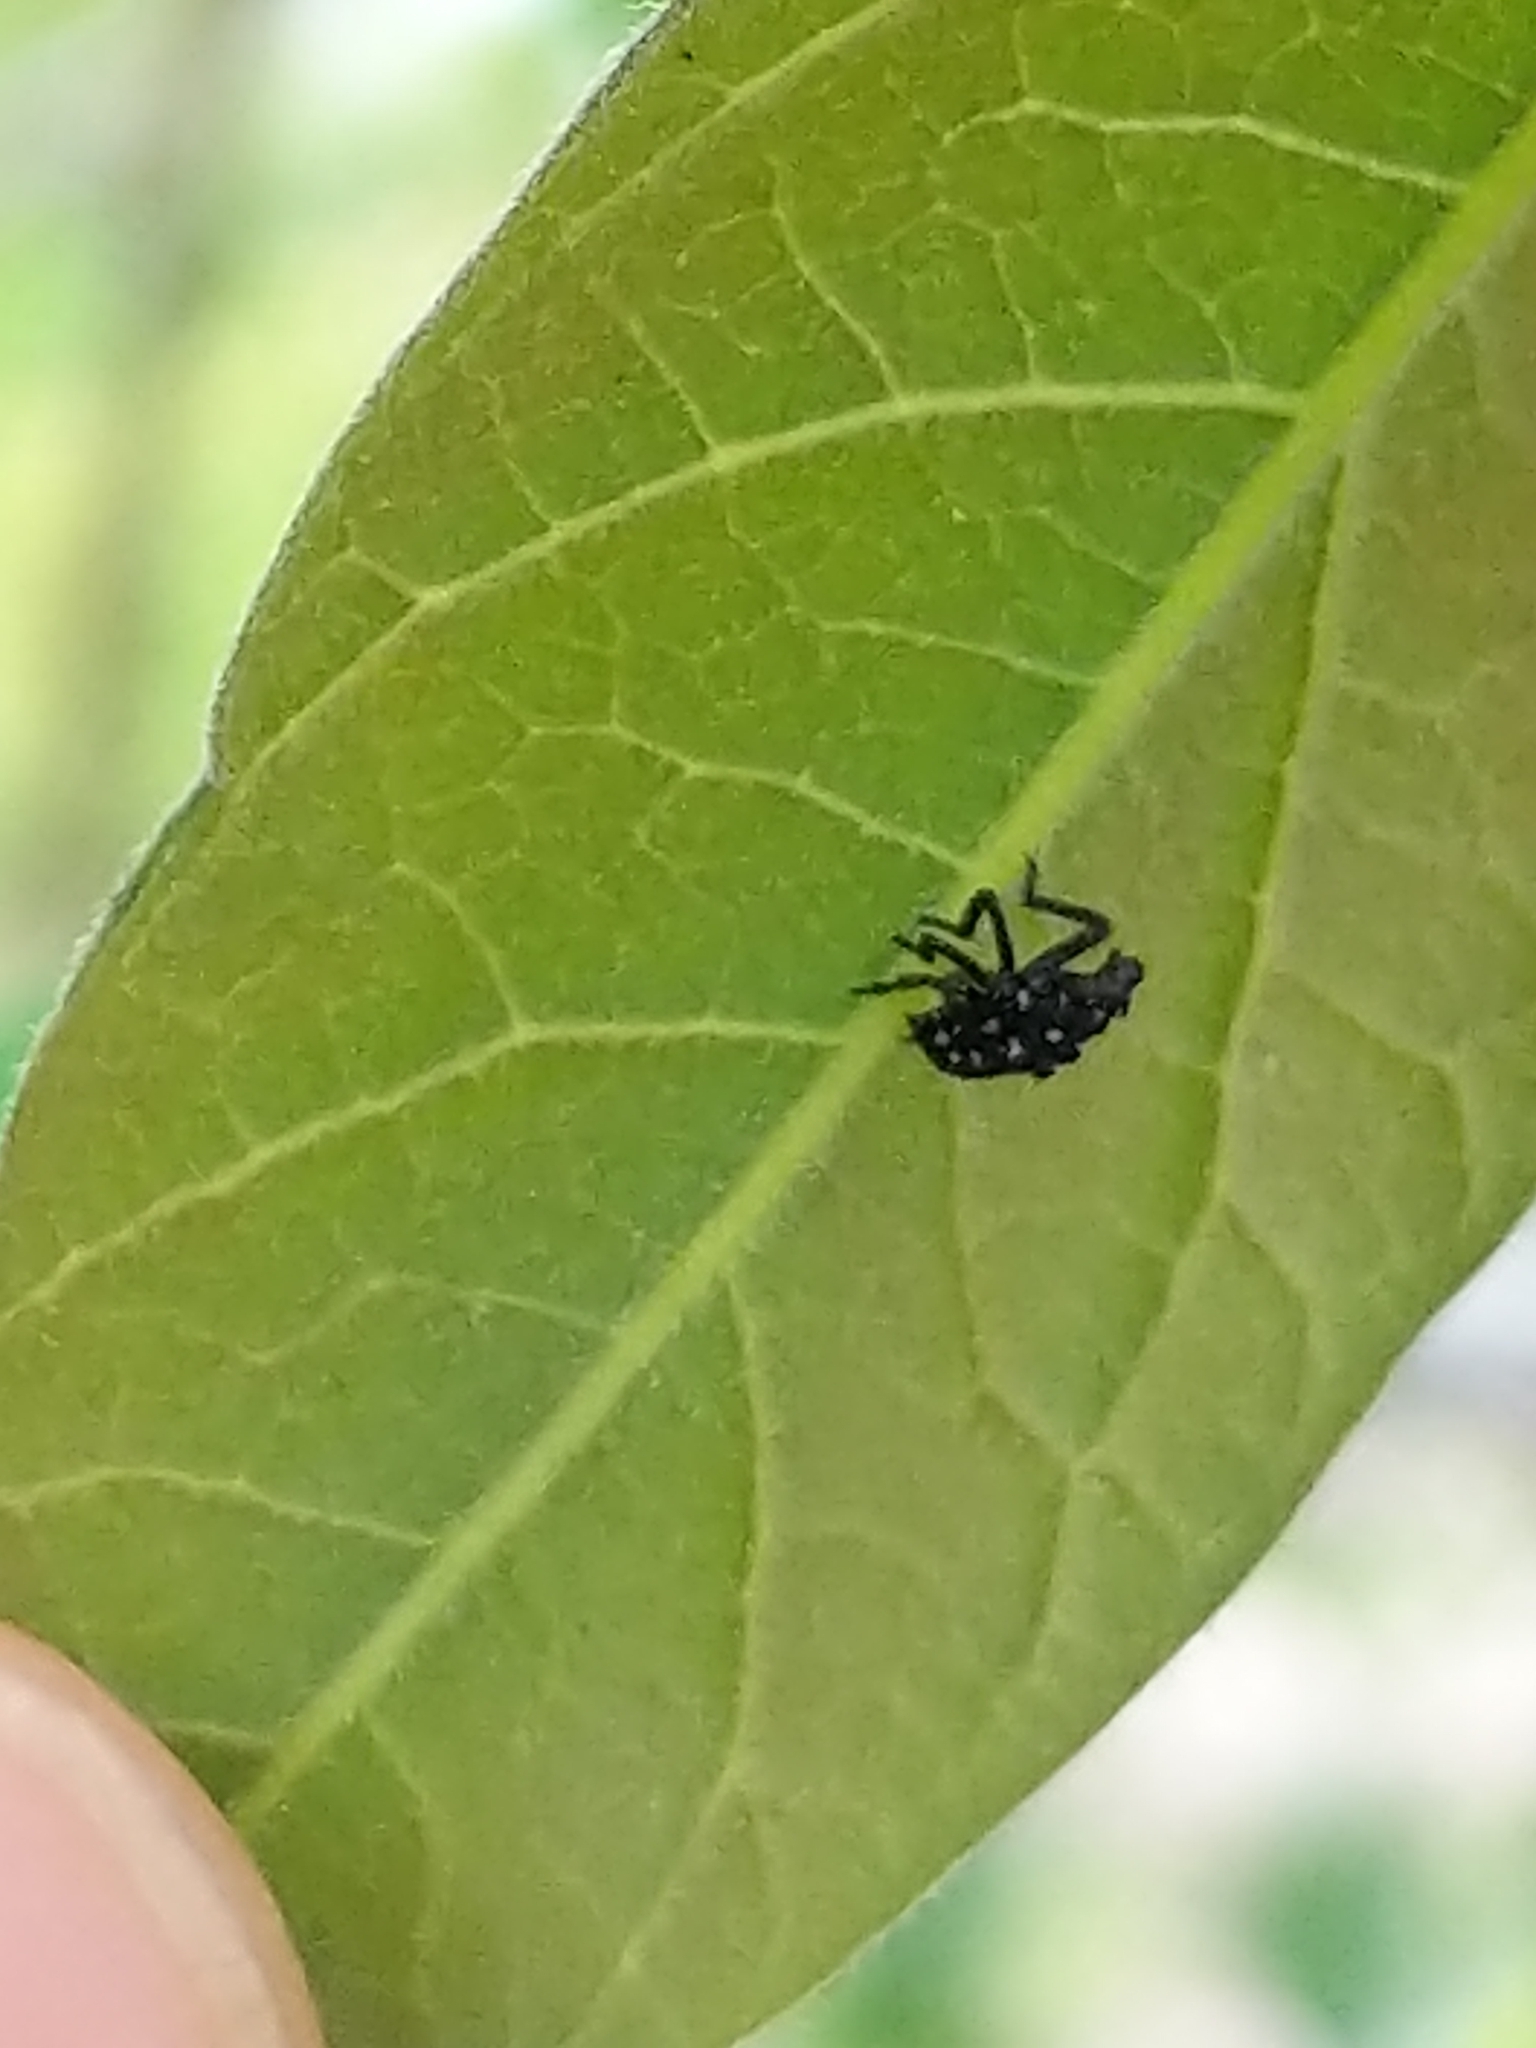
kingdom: Animalia
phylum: Arthropoda
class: Insecta
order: Hemiptera
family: Fulgoridae
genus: Lycorma
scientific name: Lycorma delicatula
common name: Spotted lanternfly
